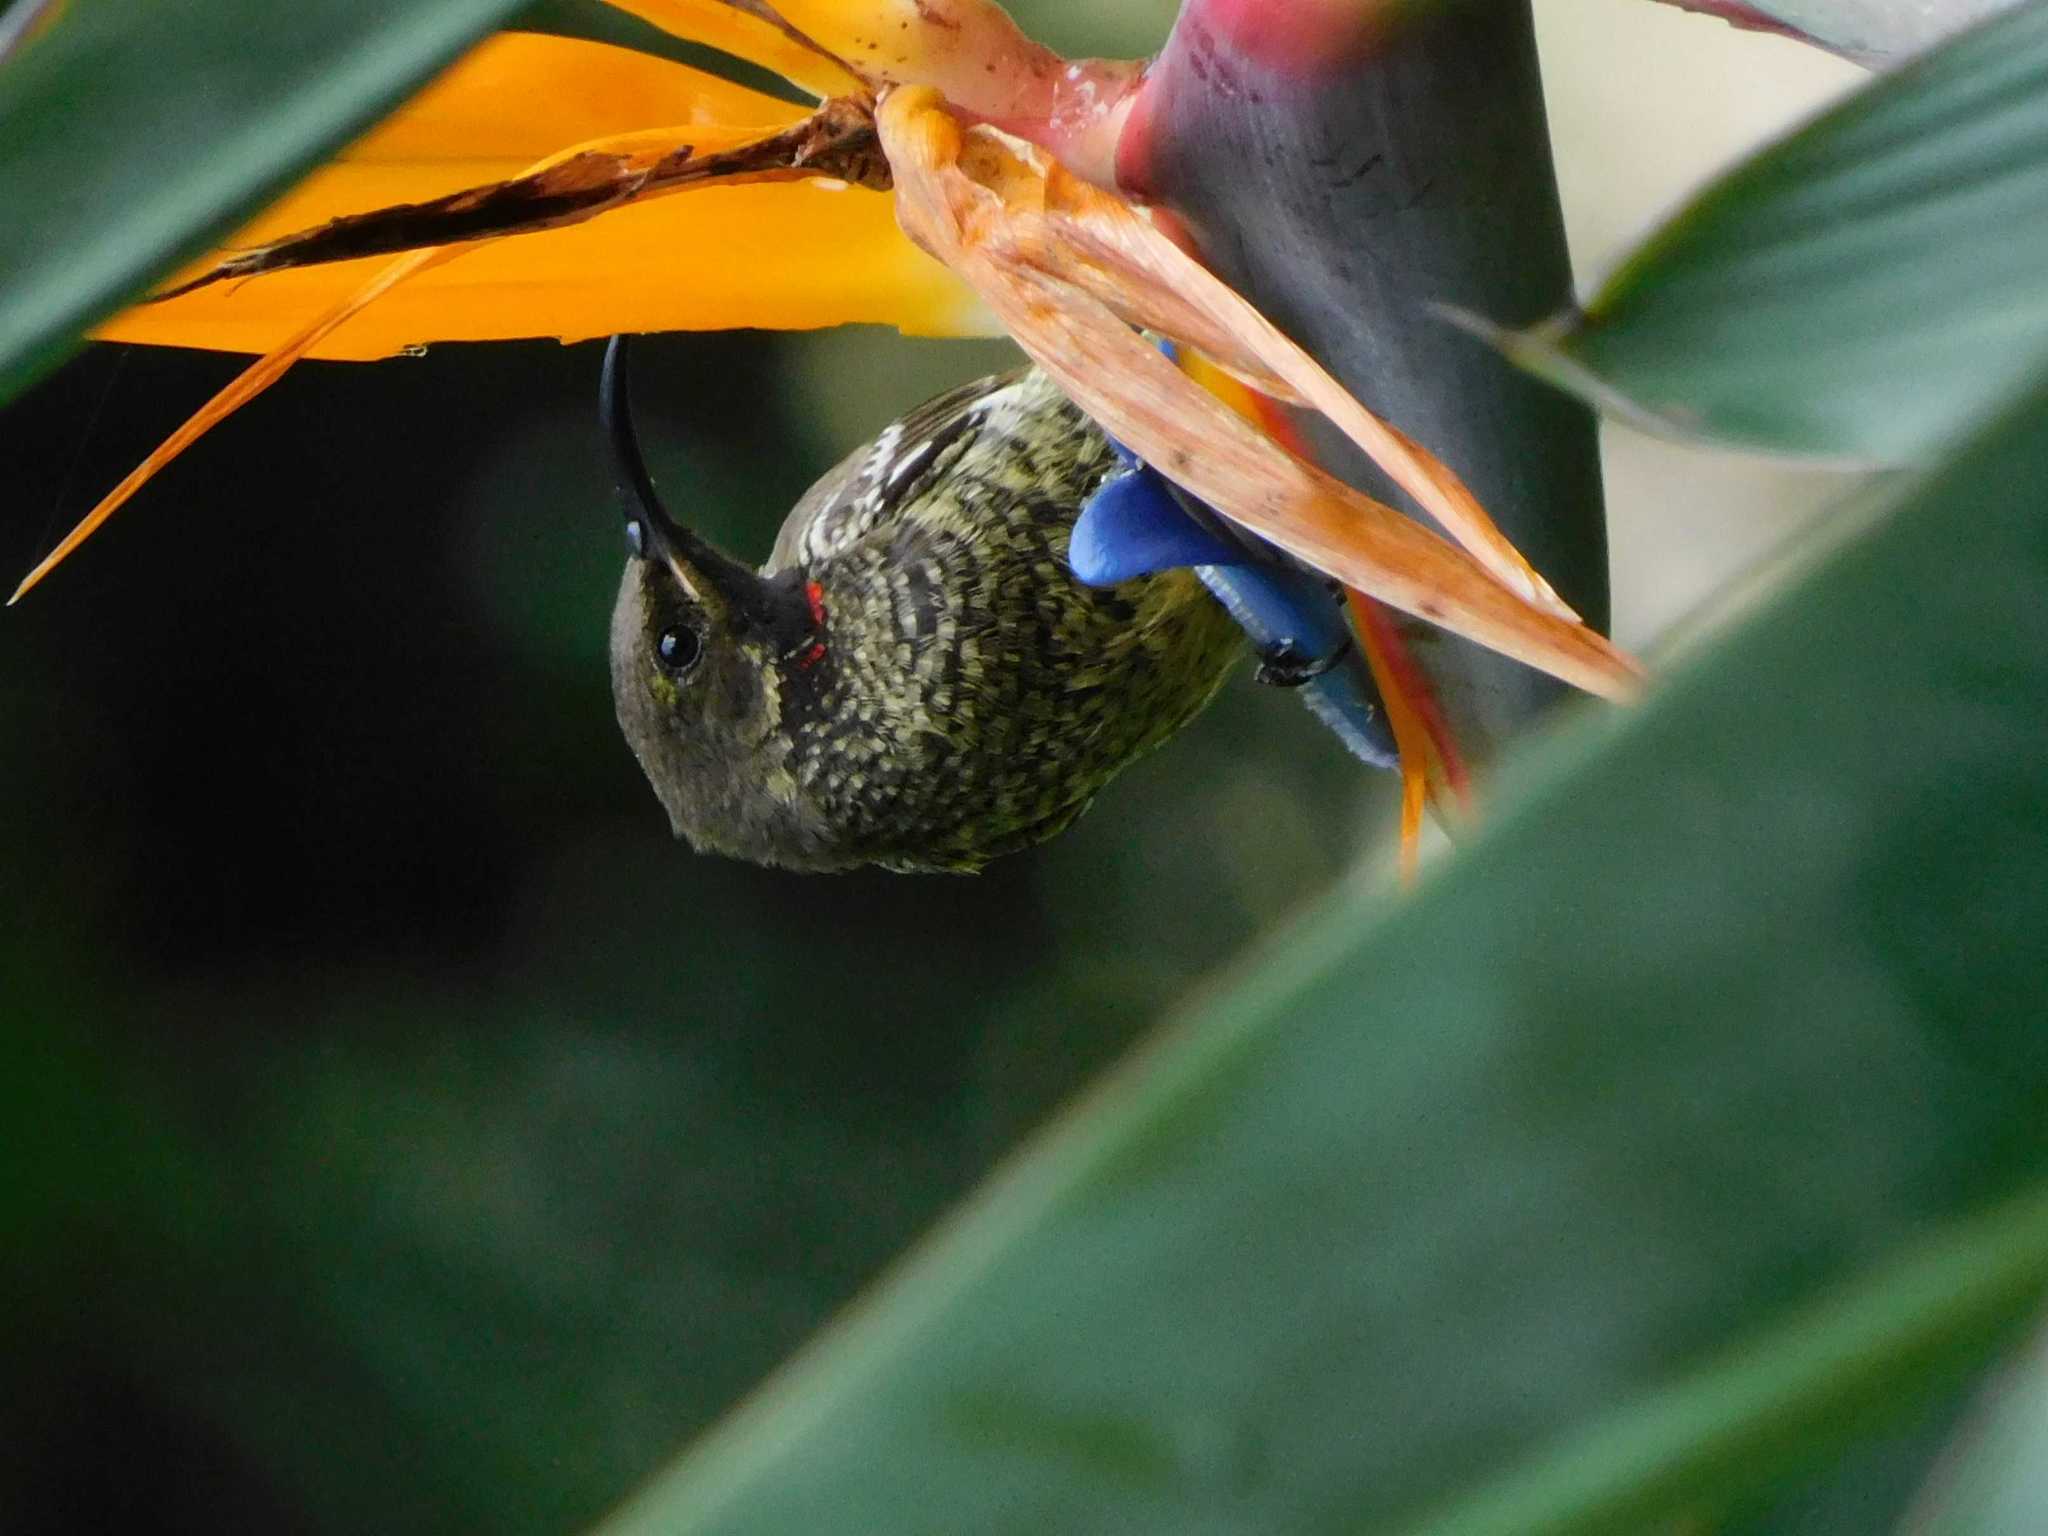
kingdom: Animalia
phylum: Chordata
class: Aves
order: Passeriformes
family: Nectariniidae
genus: Chalcomitra
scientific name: Chalcomitra senegalensis
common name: Scarlet-chested sunbird
